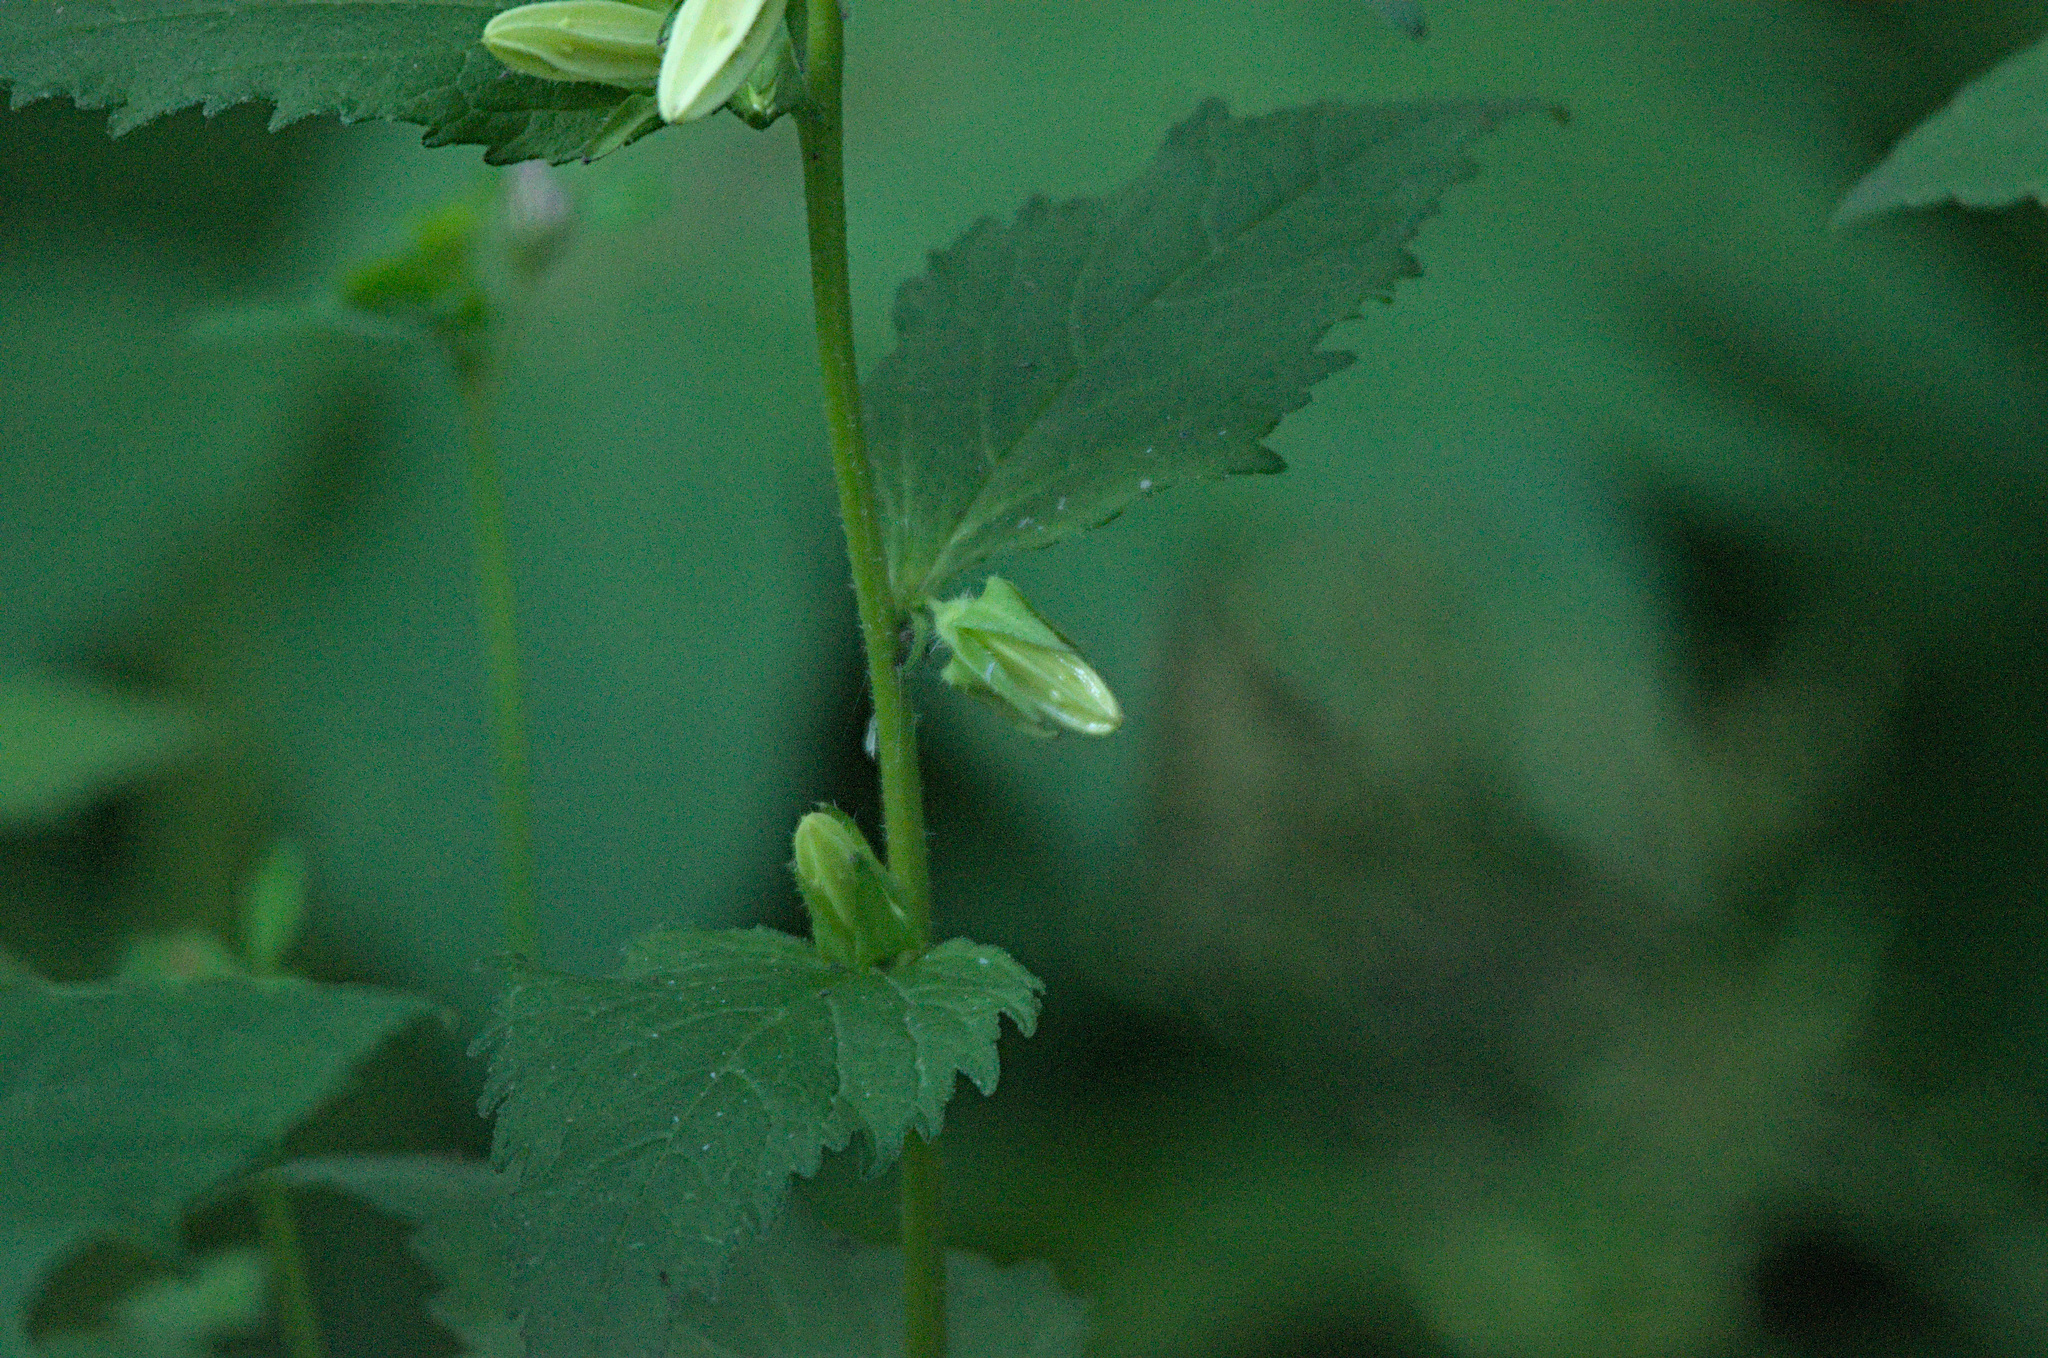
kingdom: Plantae
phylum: Tracheophyta
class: Magnoliopsida
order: Asterales
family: Campanulaceae
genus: Campanula
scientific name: Campanula trachelium
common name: Nettle-leaved bellflower
